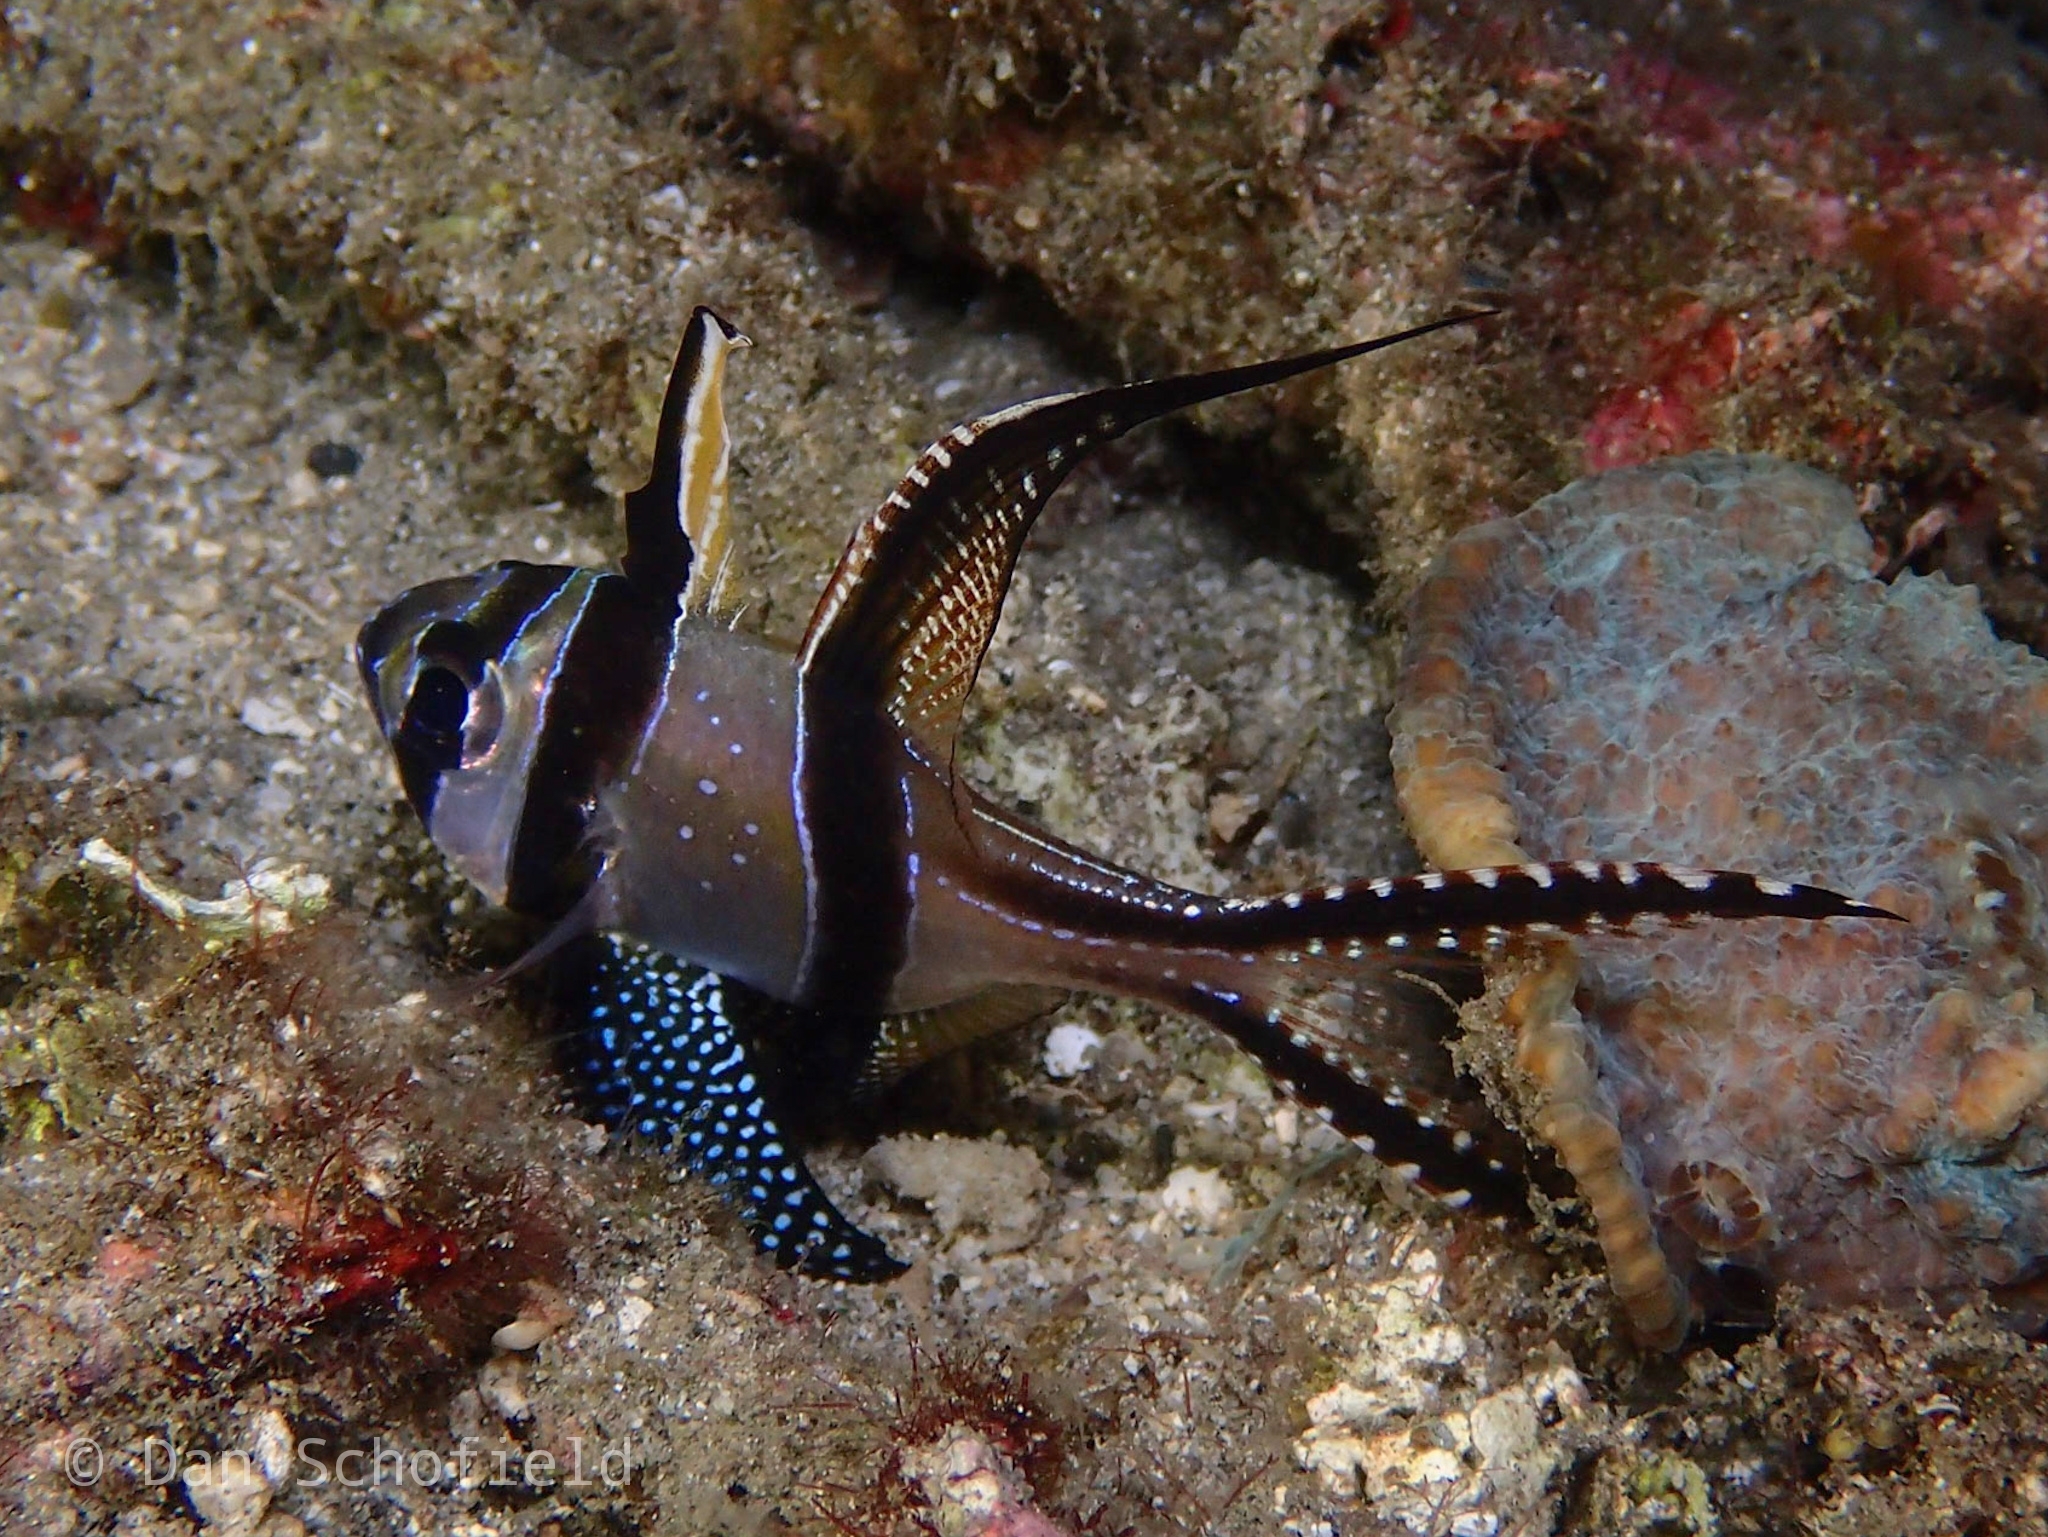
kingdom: Animalia
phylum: Chordata
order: Perciformes
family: Apogonidae
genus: Pterapogon
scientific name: Pterapogon kauderni
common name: Banggai cardinalfish
